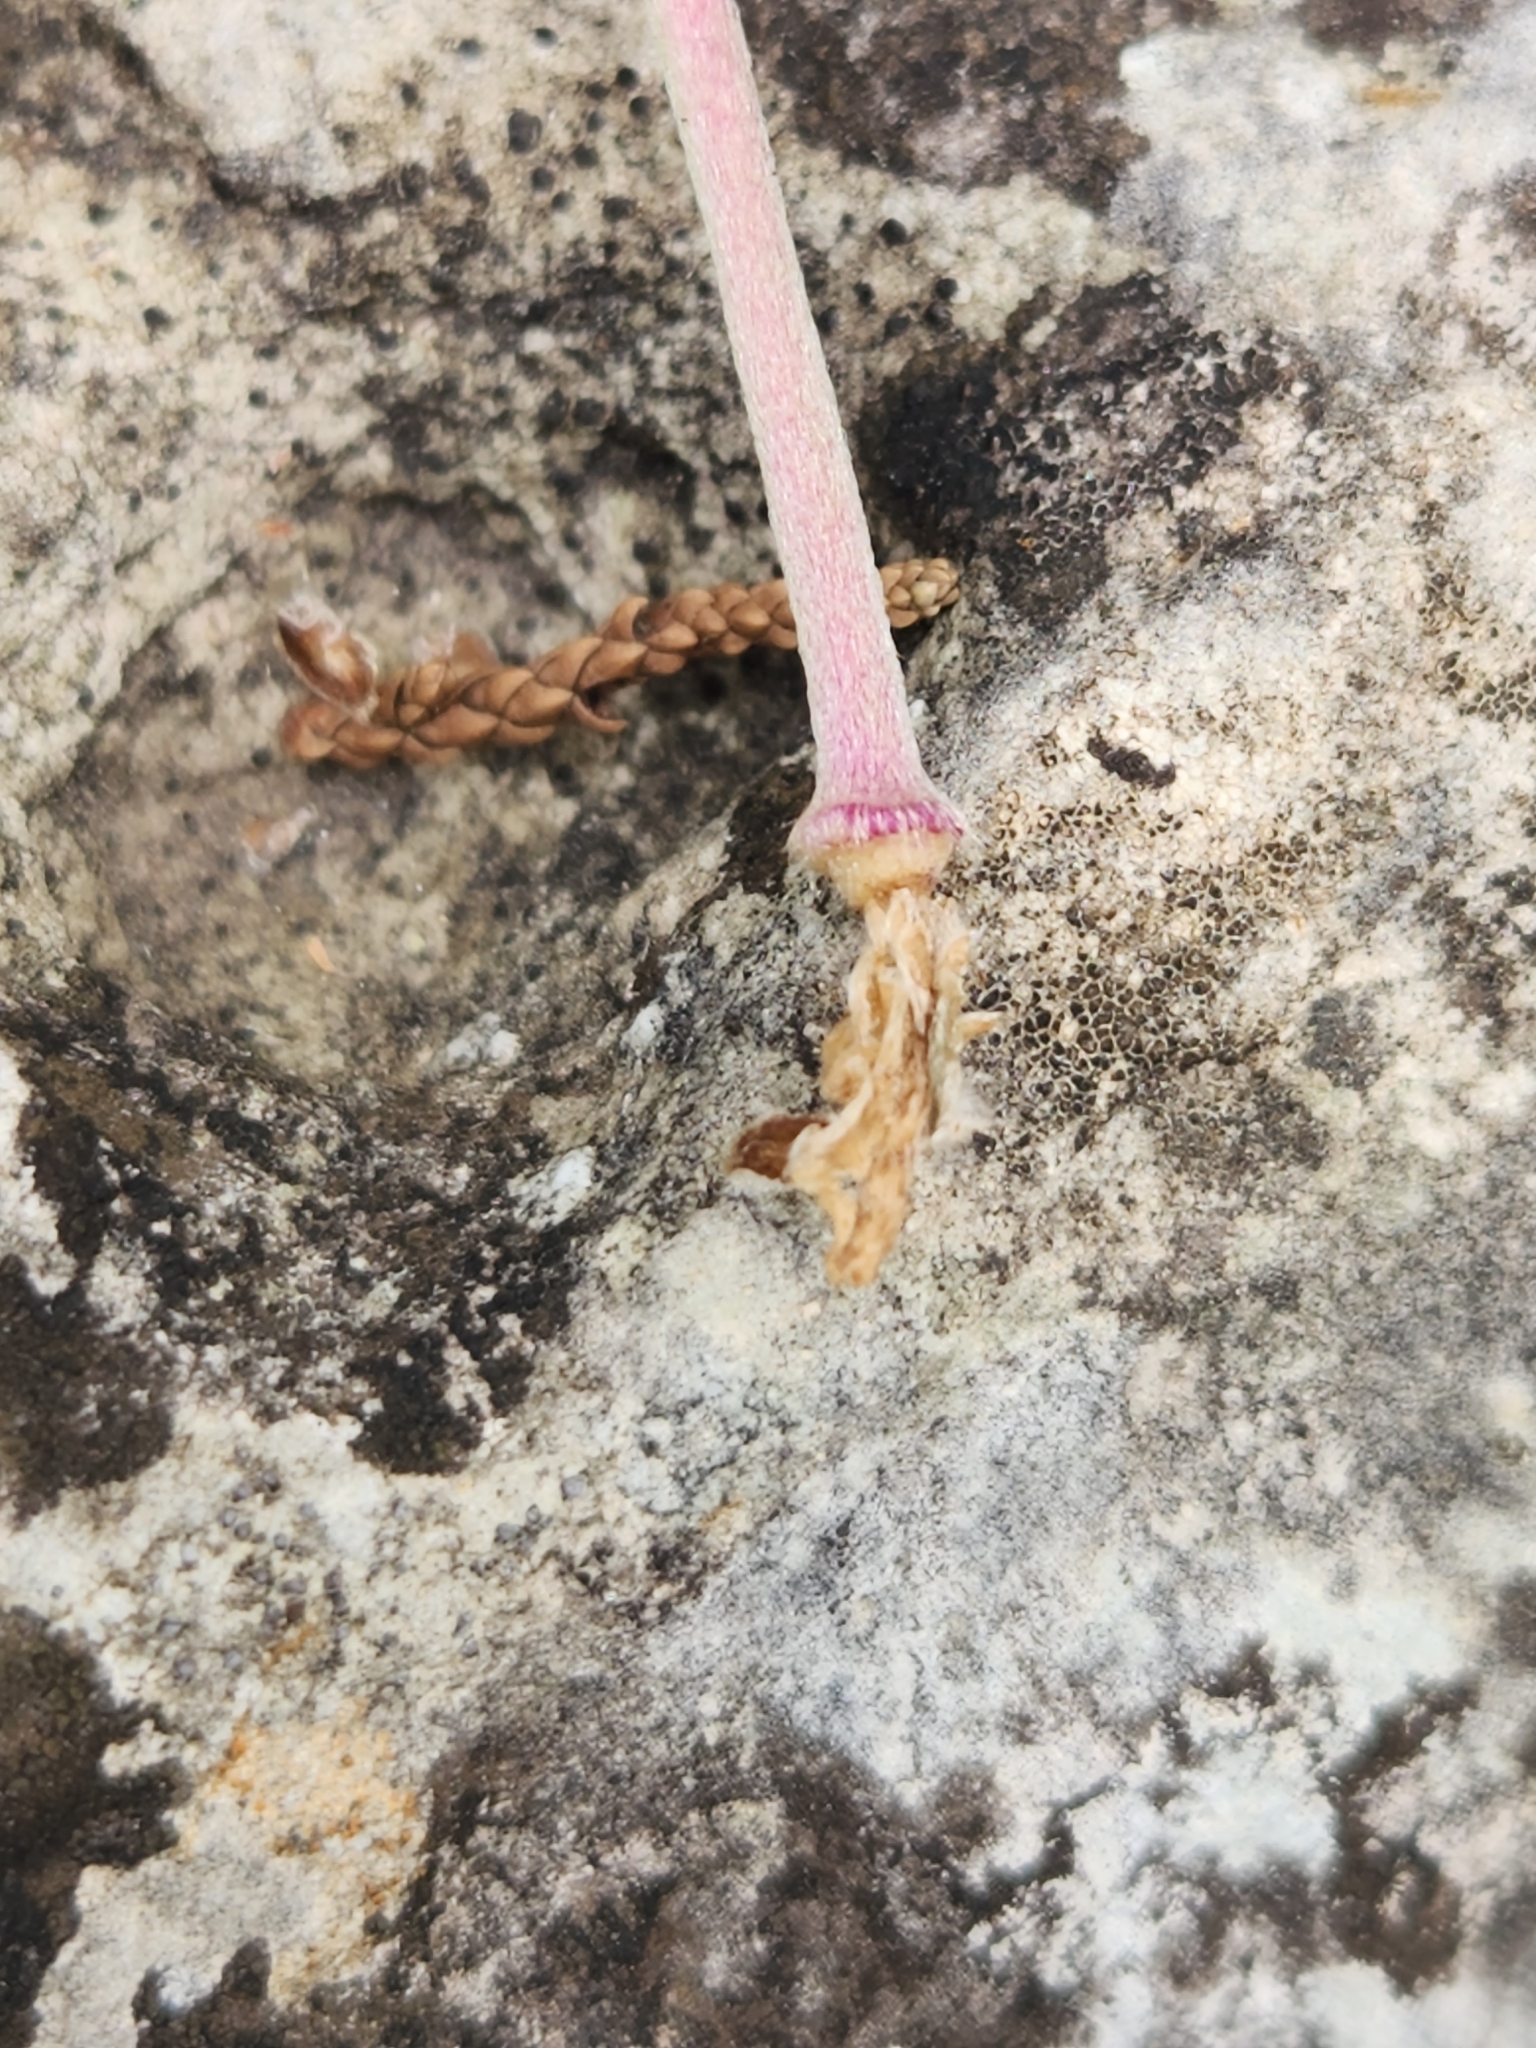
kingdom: Plantae
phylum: Tracheophyta
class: Magnoliopsida
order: Ranunculales
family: Ranunculaceae
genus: Anemone
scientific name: Anemone edwardsiana
